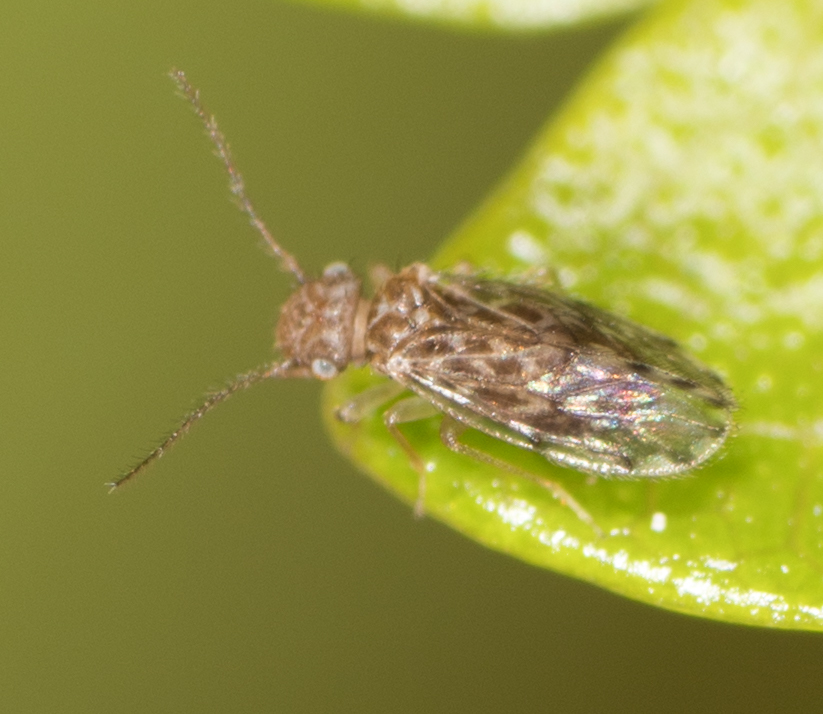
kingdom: Animalia
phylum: Arthropoda
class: Insecta
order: Psocodea
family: Ectopsocidae
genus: Ectopsocus
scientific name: Ectopsocus strauchi
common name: Medium-sized bark louse
